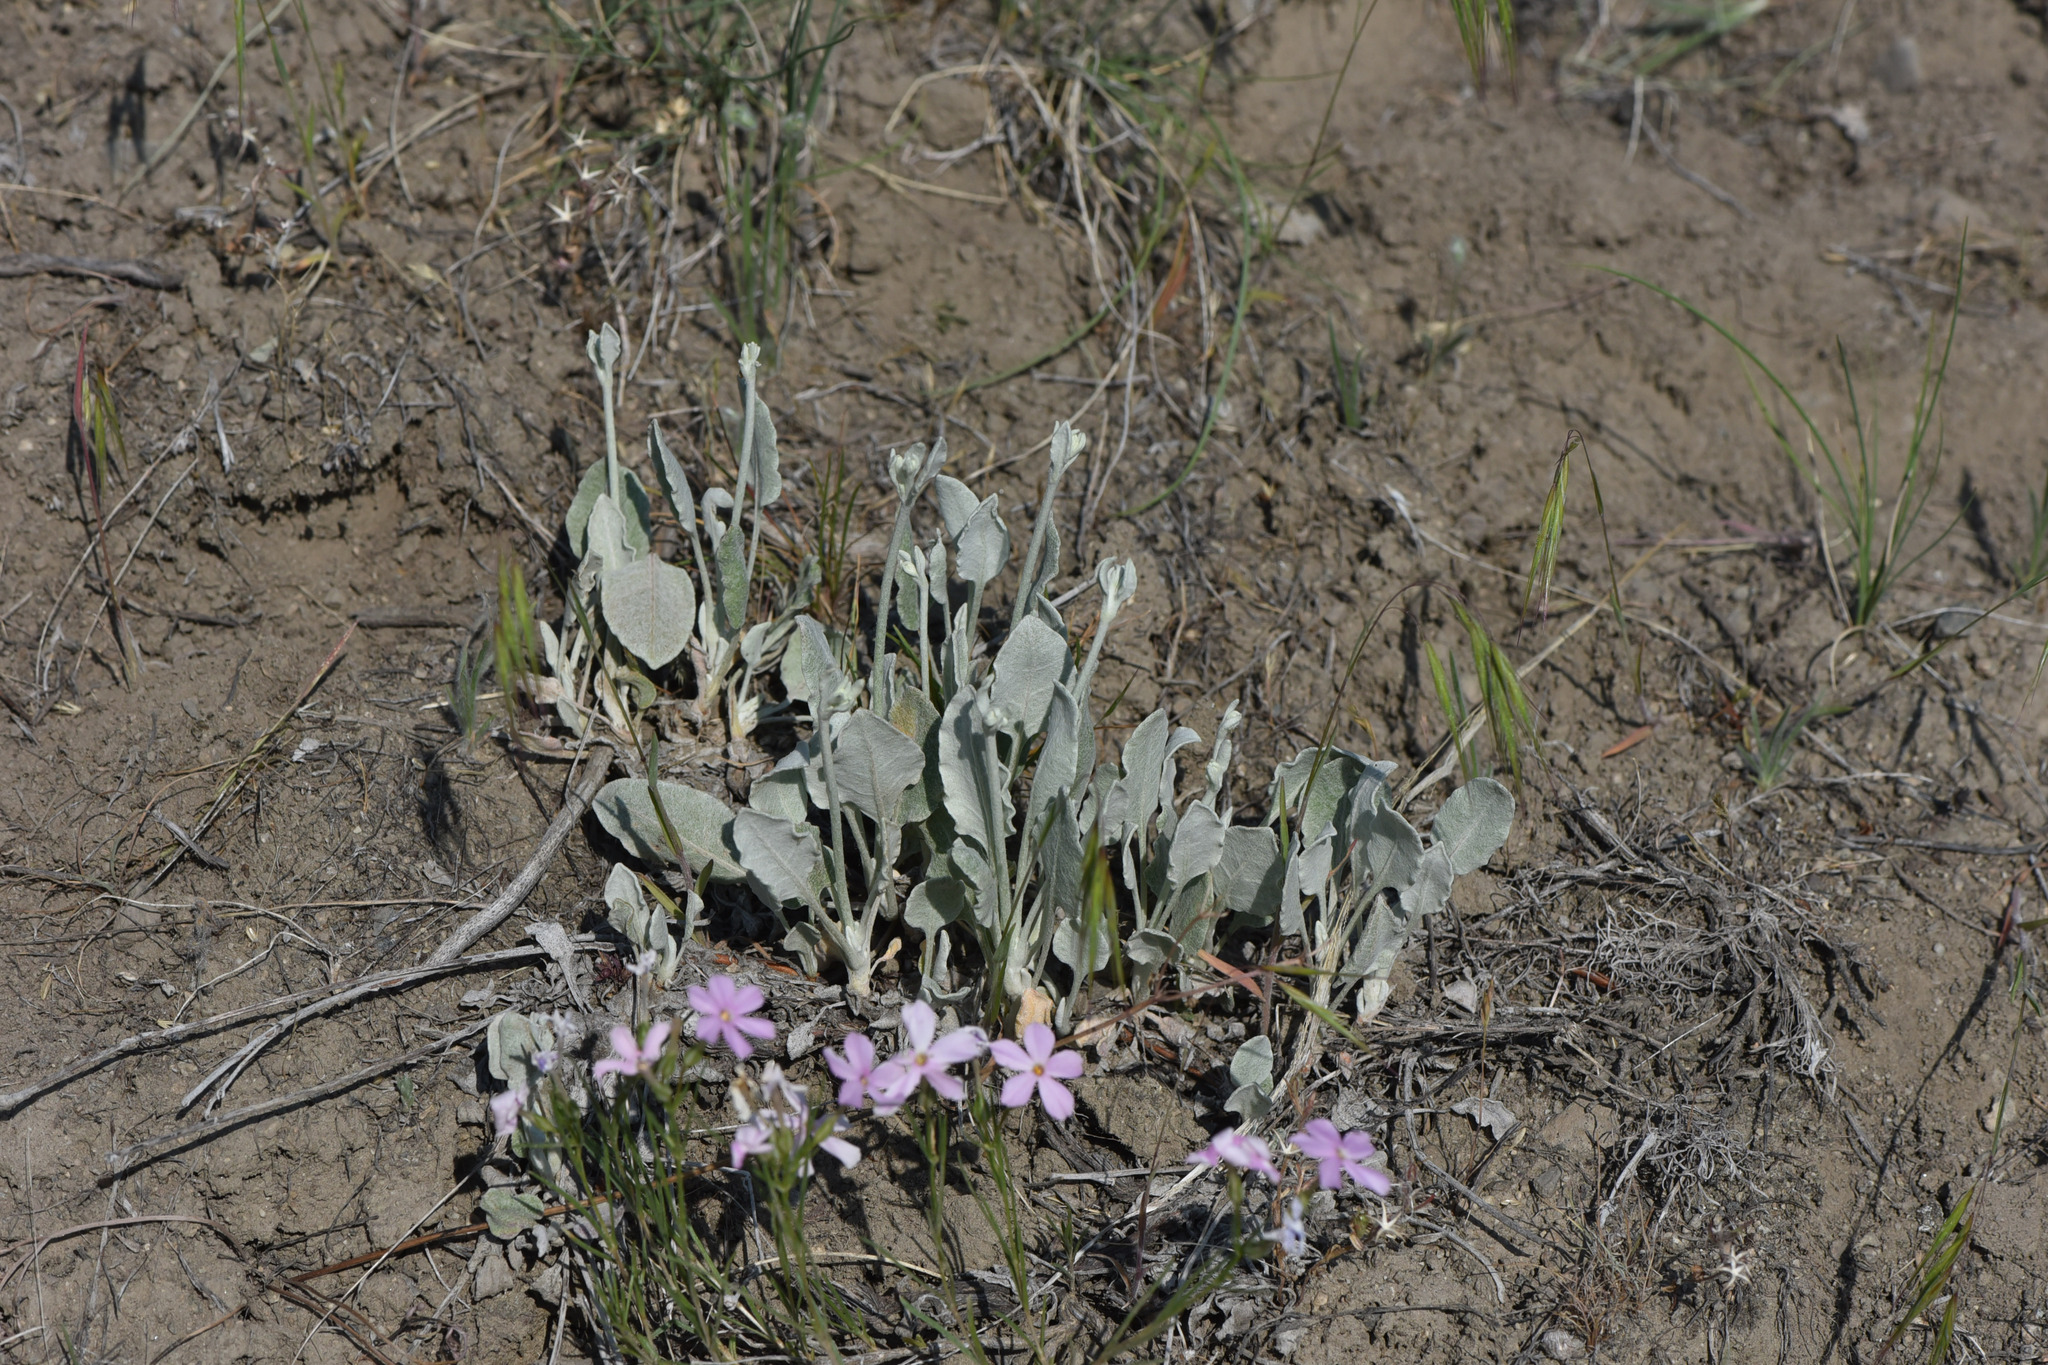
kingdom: Plantae
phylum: Tracheophyta
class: Magnoliopsida
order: Caryophyllales
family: Polygonaceae
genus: Eriogonum
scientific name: Eriogonum niveum
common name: Snow wild buckwheat
